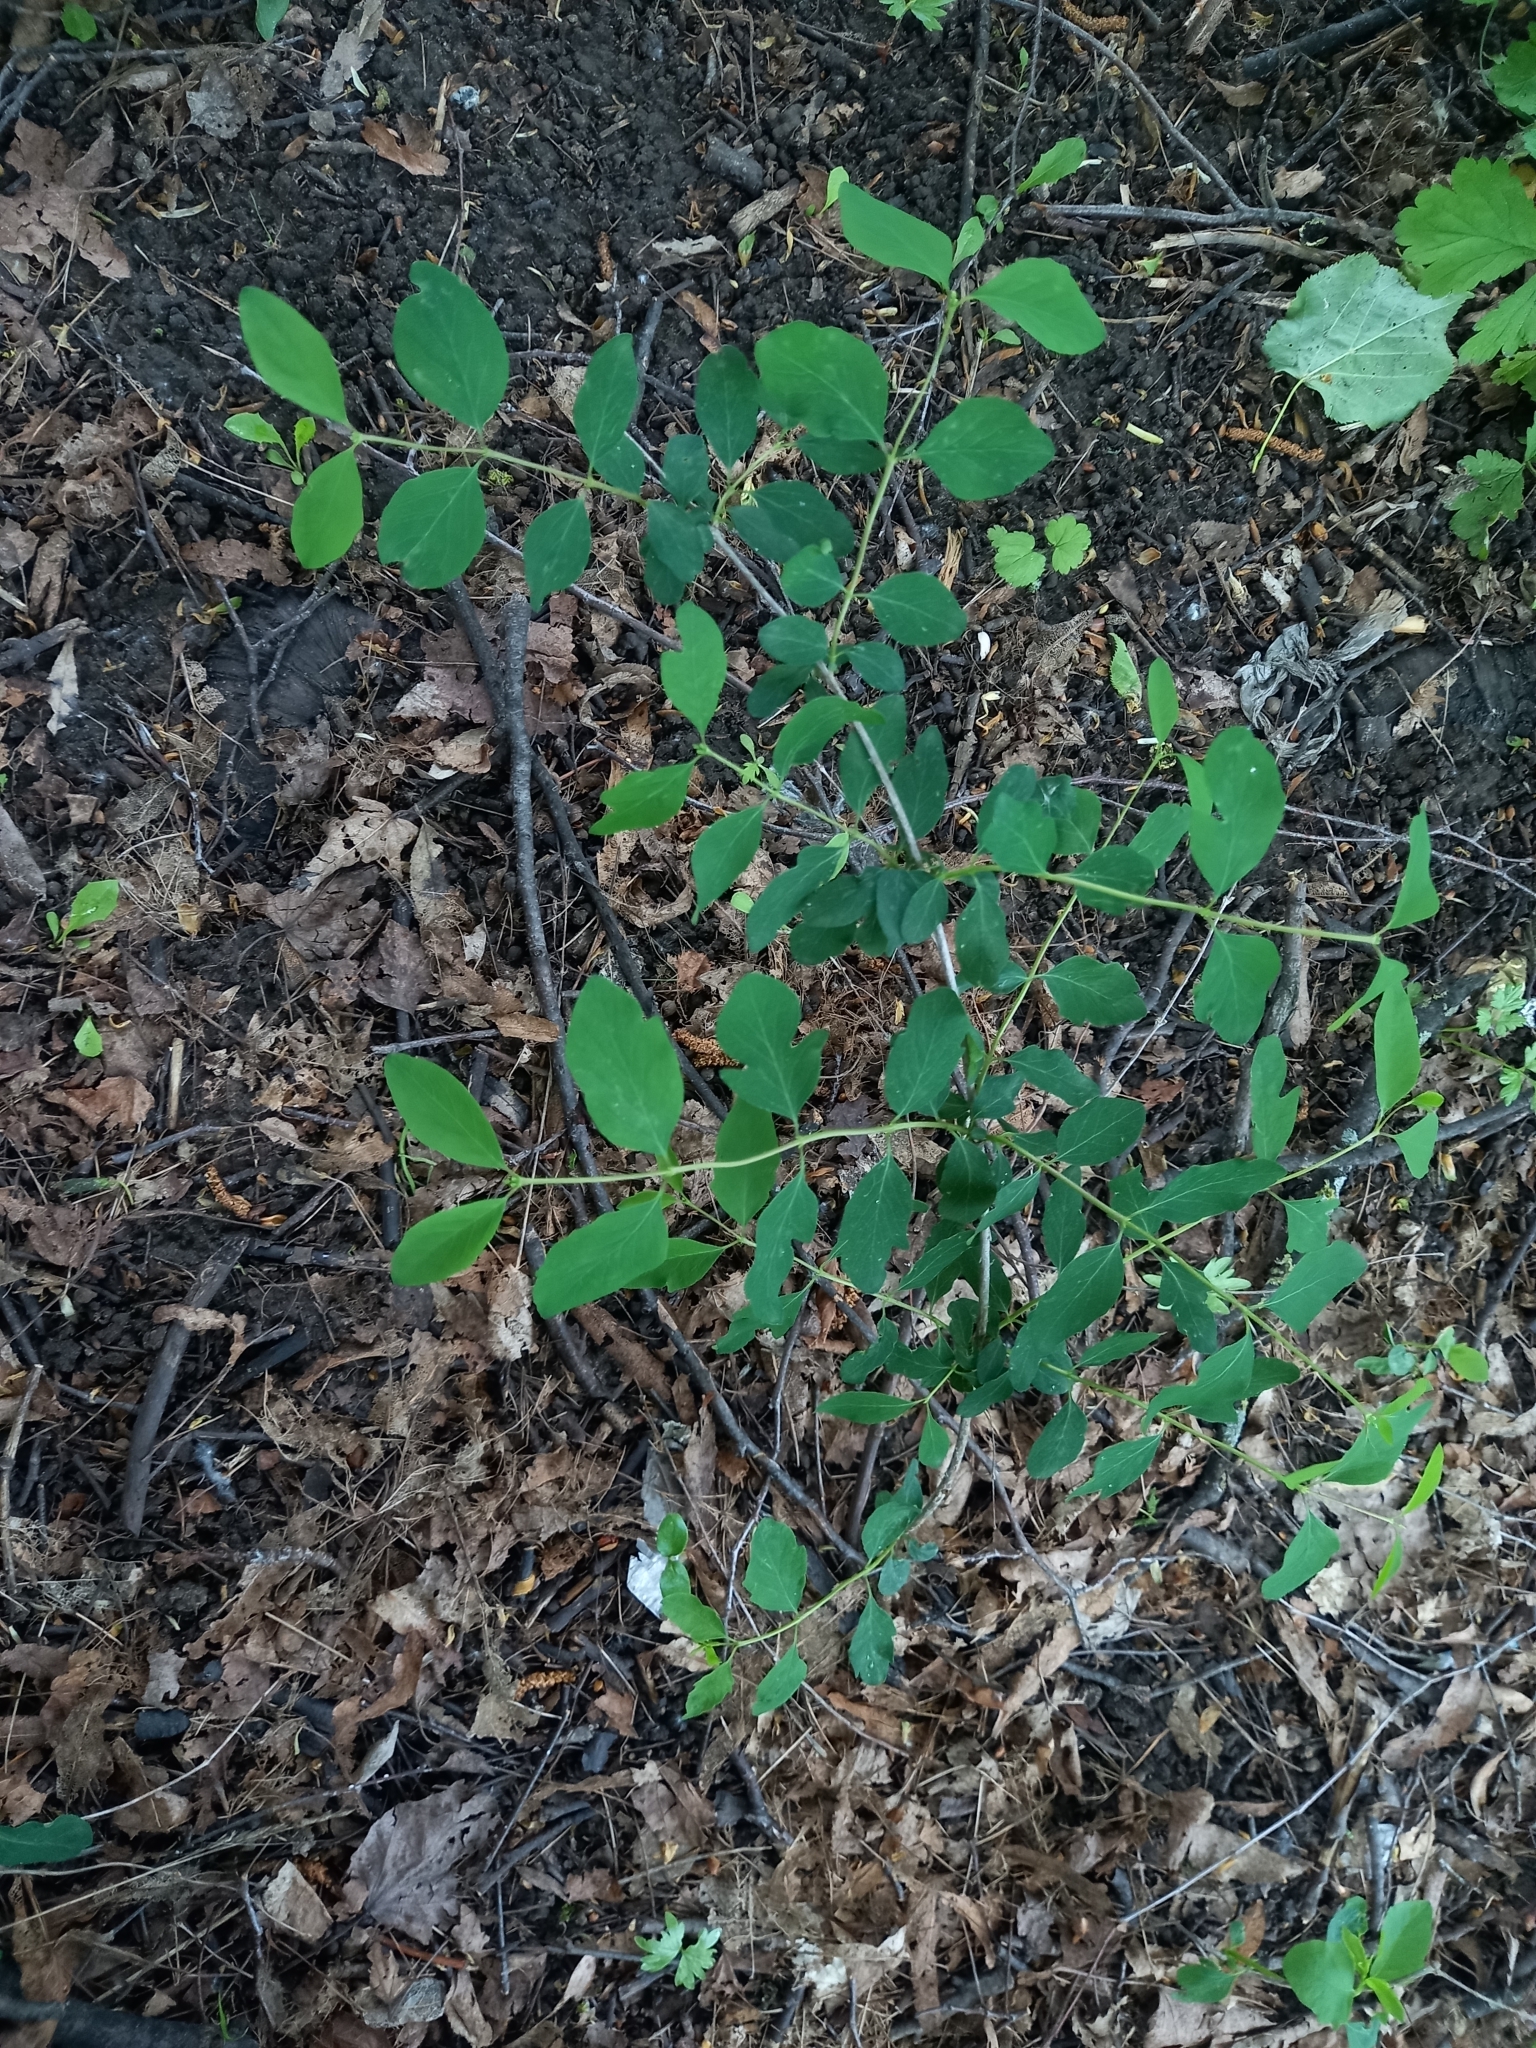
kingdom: Plantae
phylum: Tracheophyta
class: Magnoliopsida
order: Dipsacales
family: Caprifoliaceae
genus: Symphoricarpos
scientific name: Symphoricarpos albus
